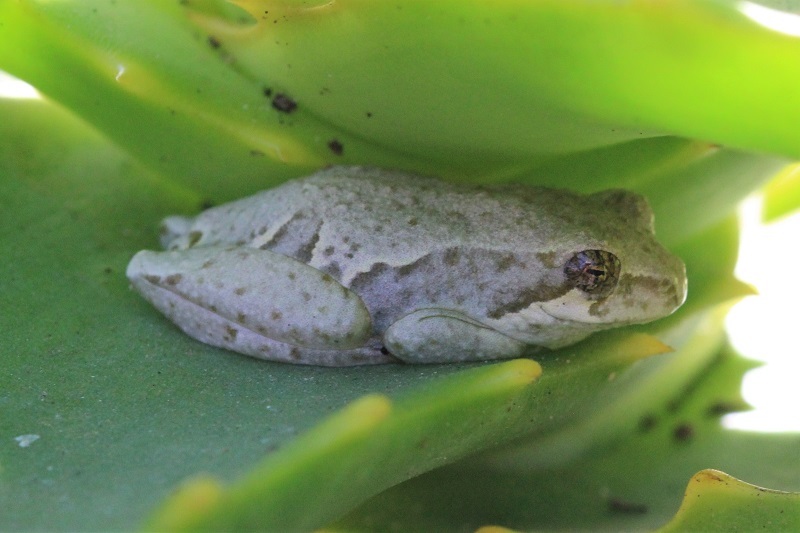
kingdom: Animalia
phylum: Chordata
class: Amphibia
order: Anura
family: Hyperoliidae
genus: Hyperolius
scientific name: Hyperolius marmoratus
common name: Painted reed frog
